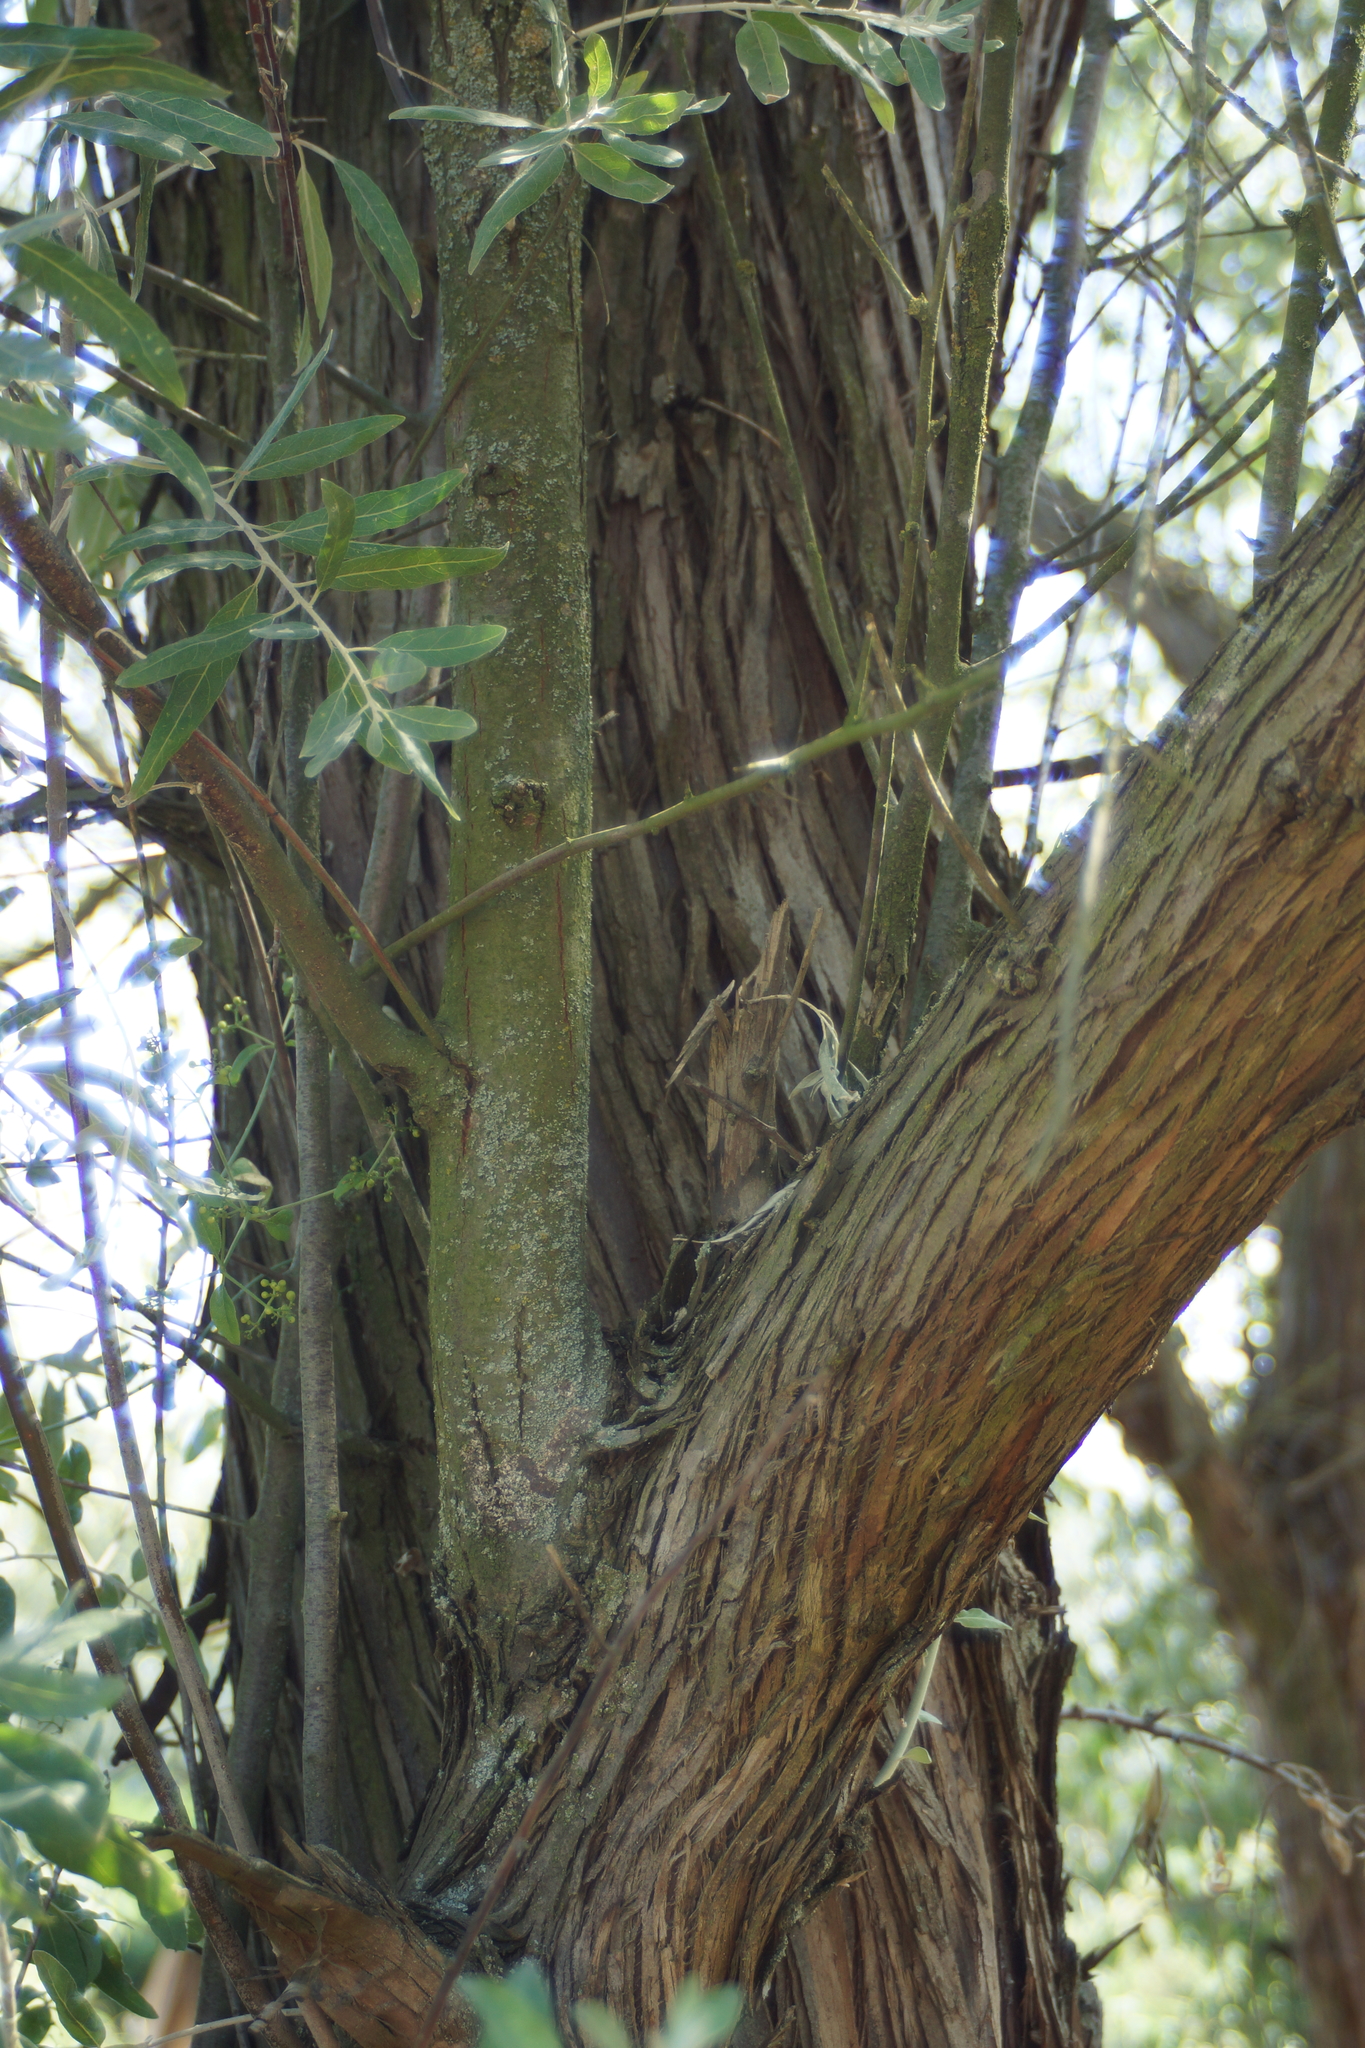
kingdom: Plantae
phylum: Tracheophyta
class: Magnoliopsida
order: Rosales
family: Elaeagnaceae
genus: Elaeagnus
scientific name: Elaeagnus angustifolia
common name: Russian olive
